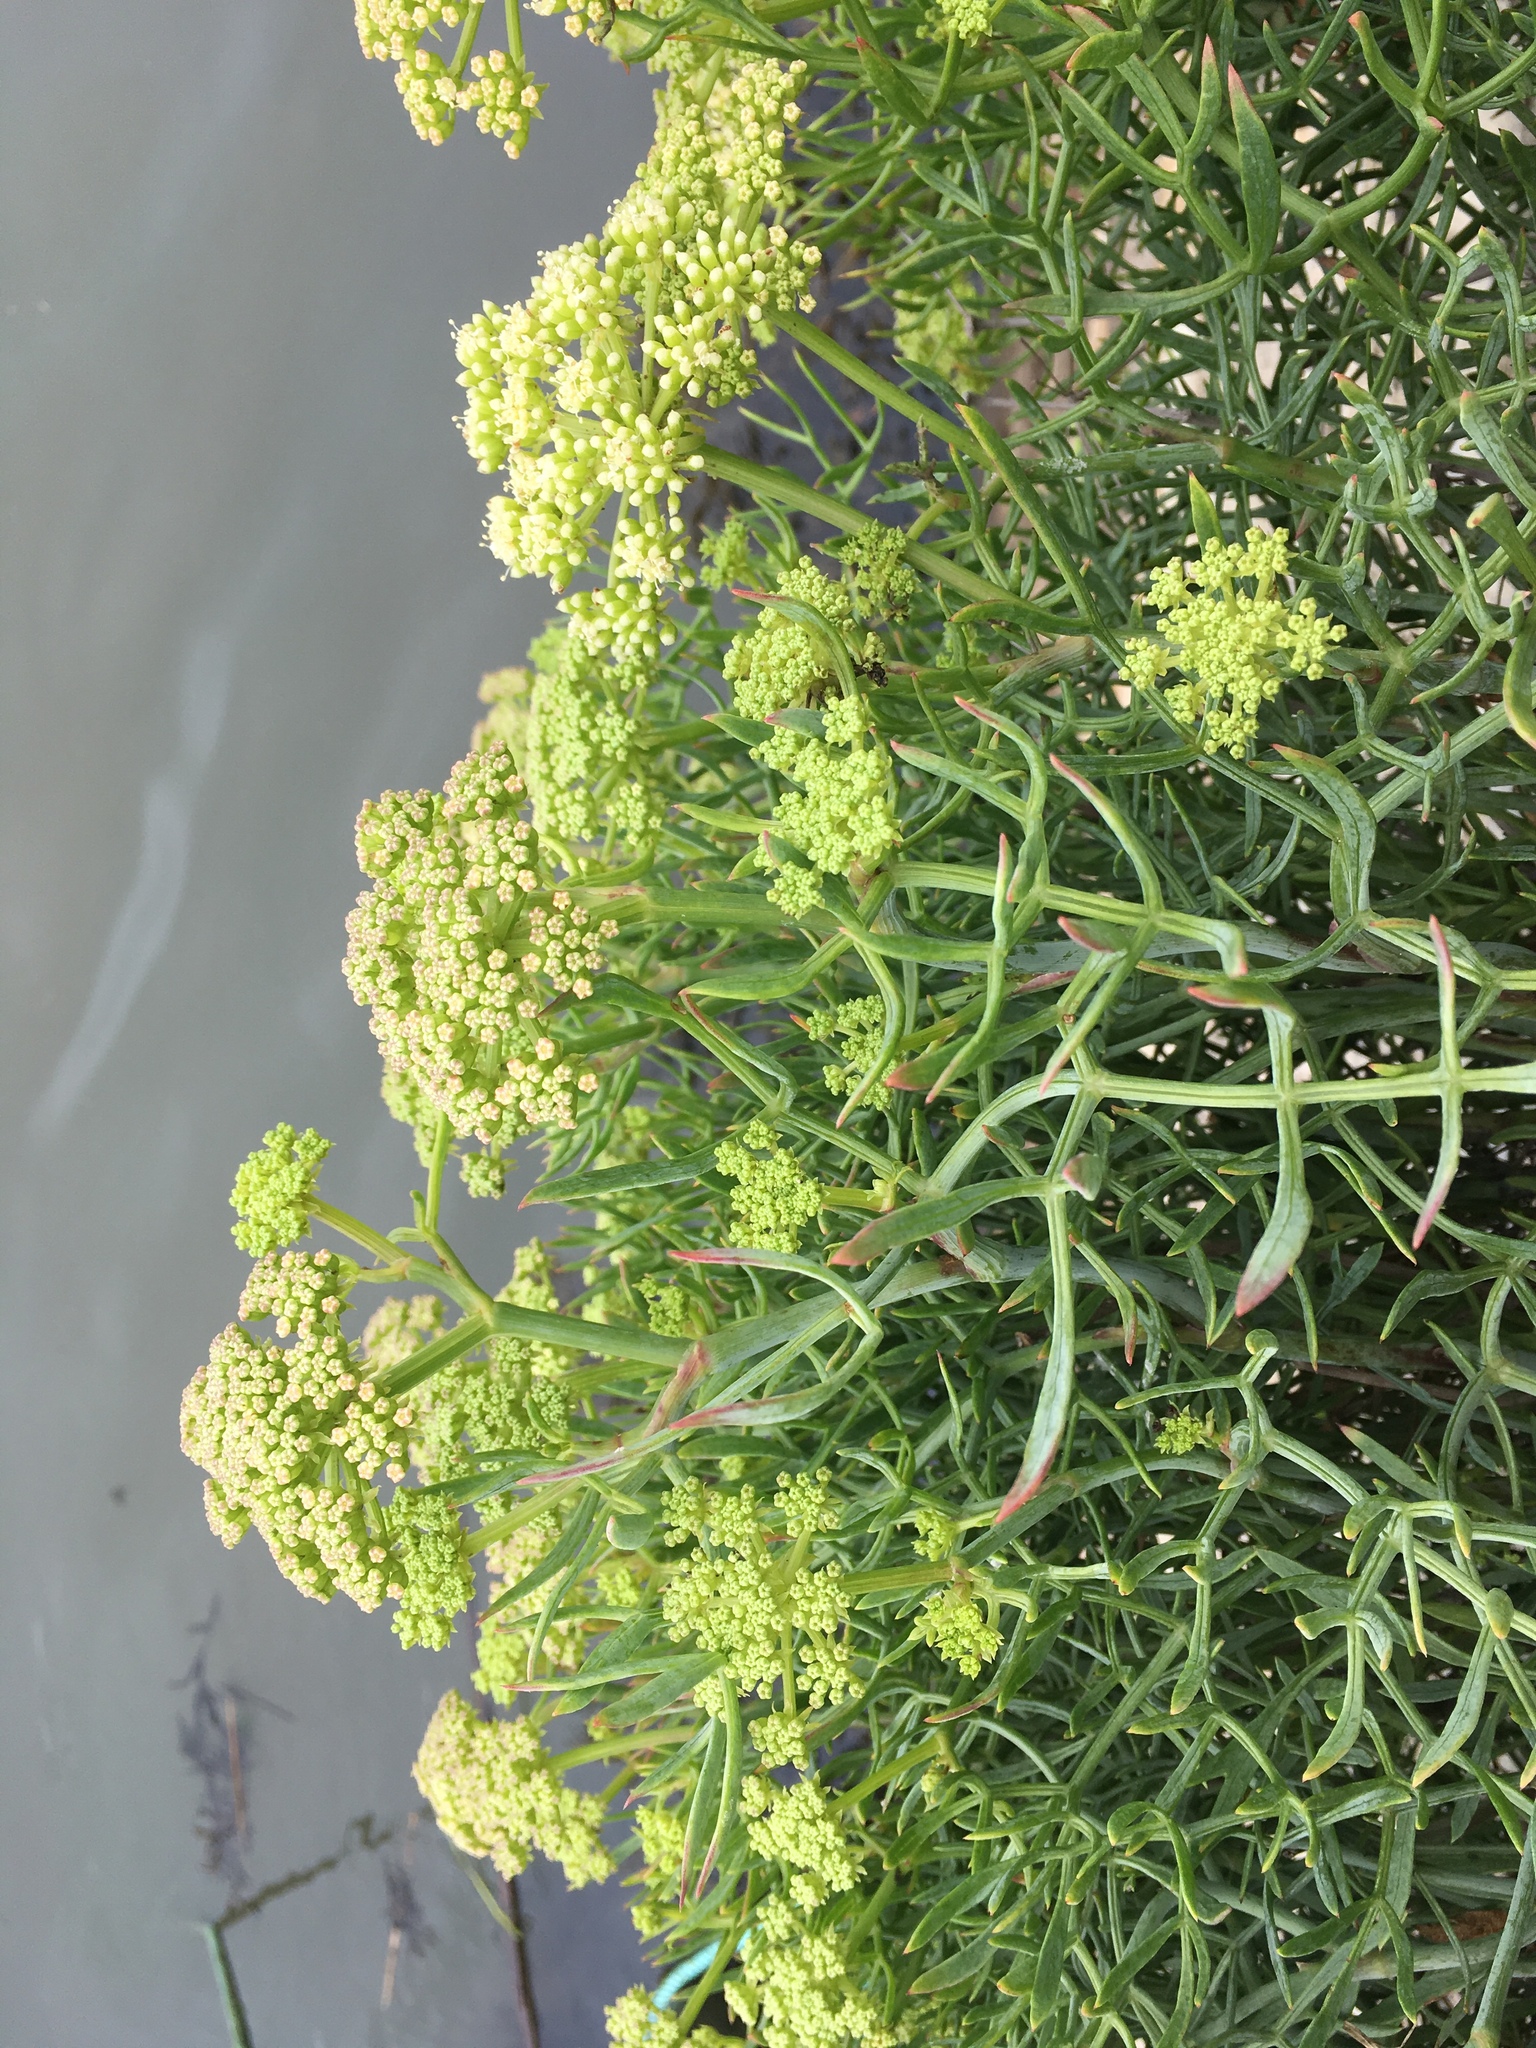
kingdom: Plantae
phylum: Tracheophyta
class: Magnoliopsida
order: Apiales
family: Apiaceae
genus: Crithmum
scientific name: Crithmum maritimum
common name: Rock samphire
